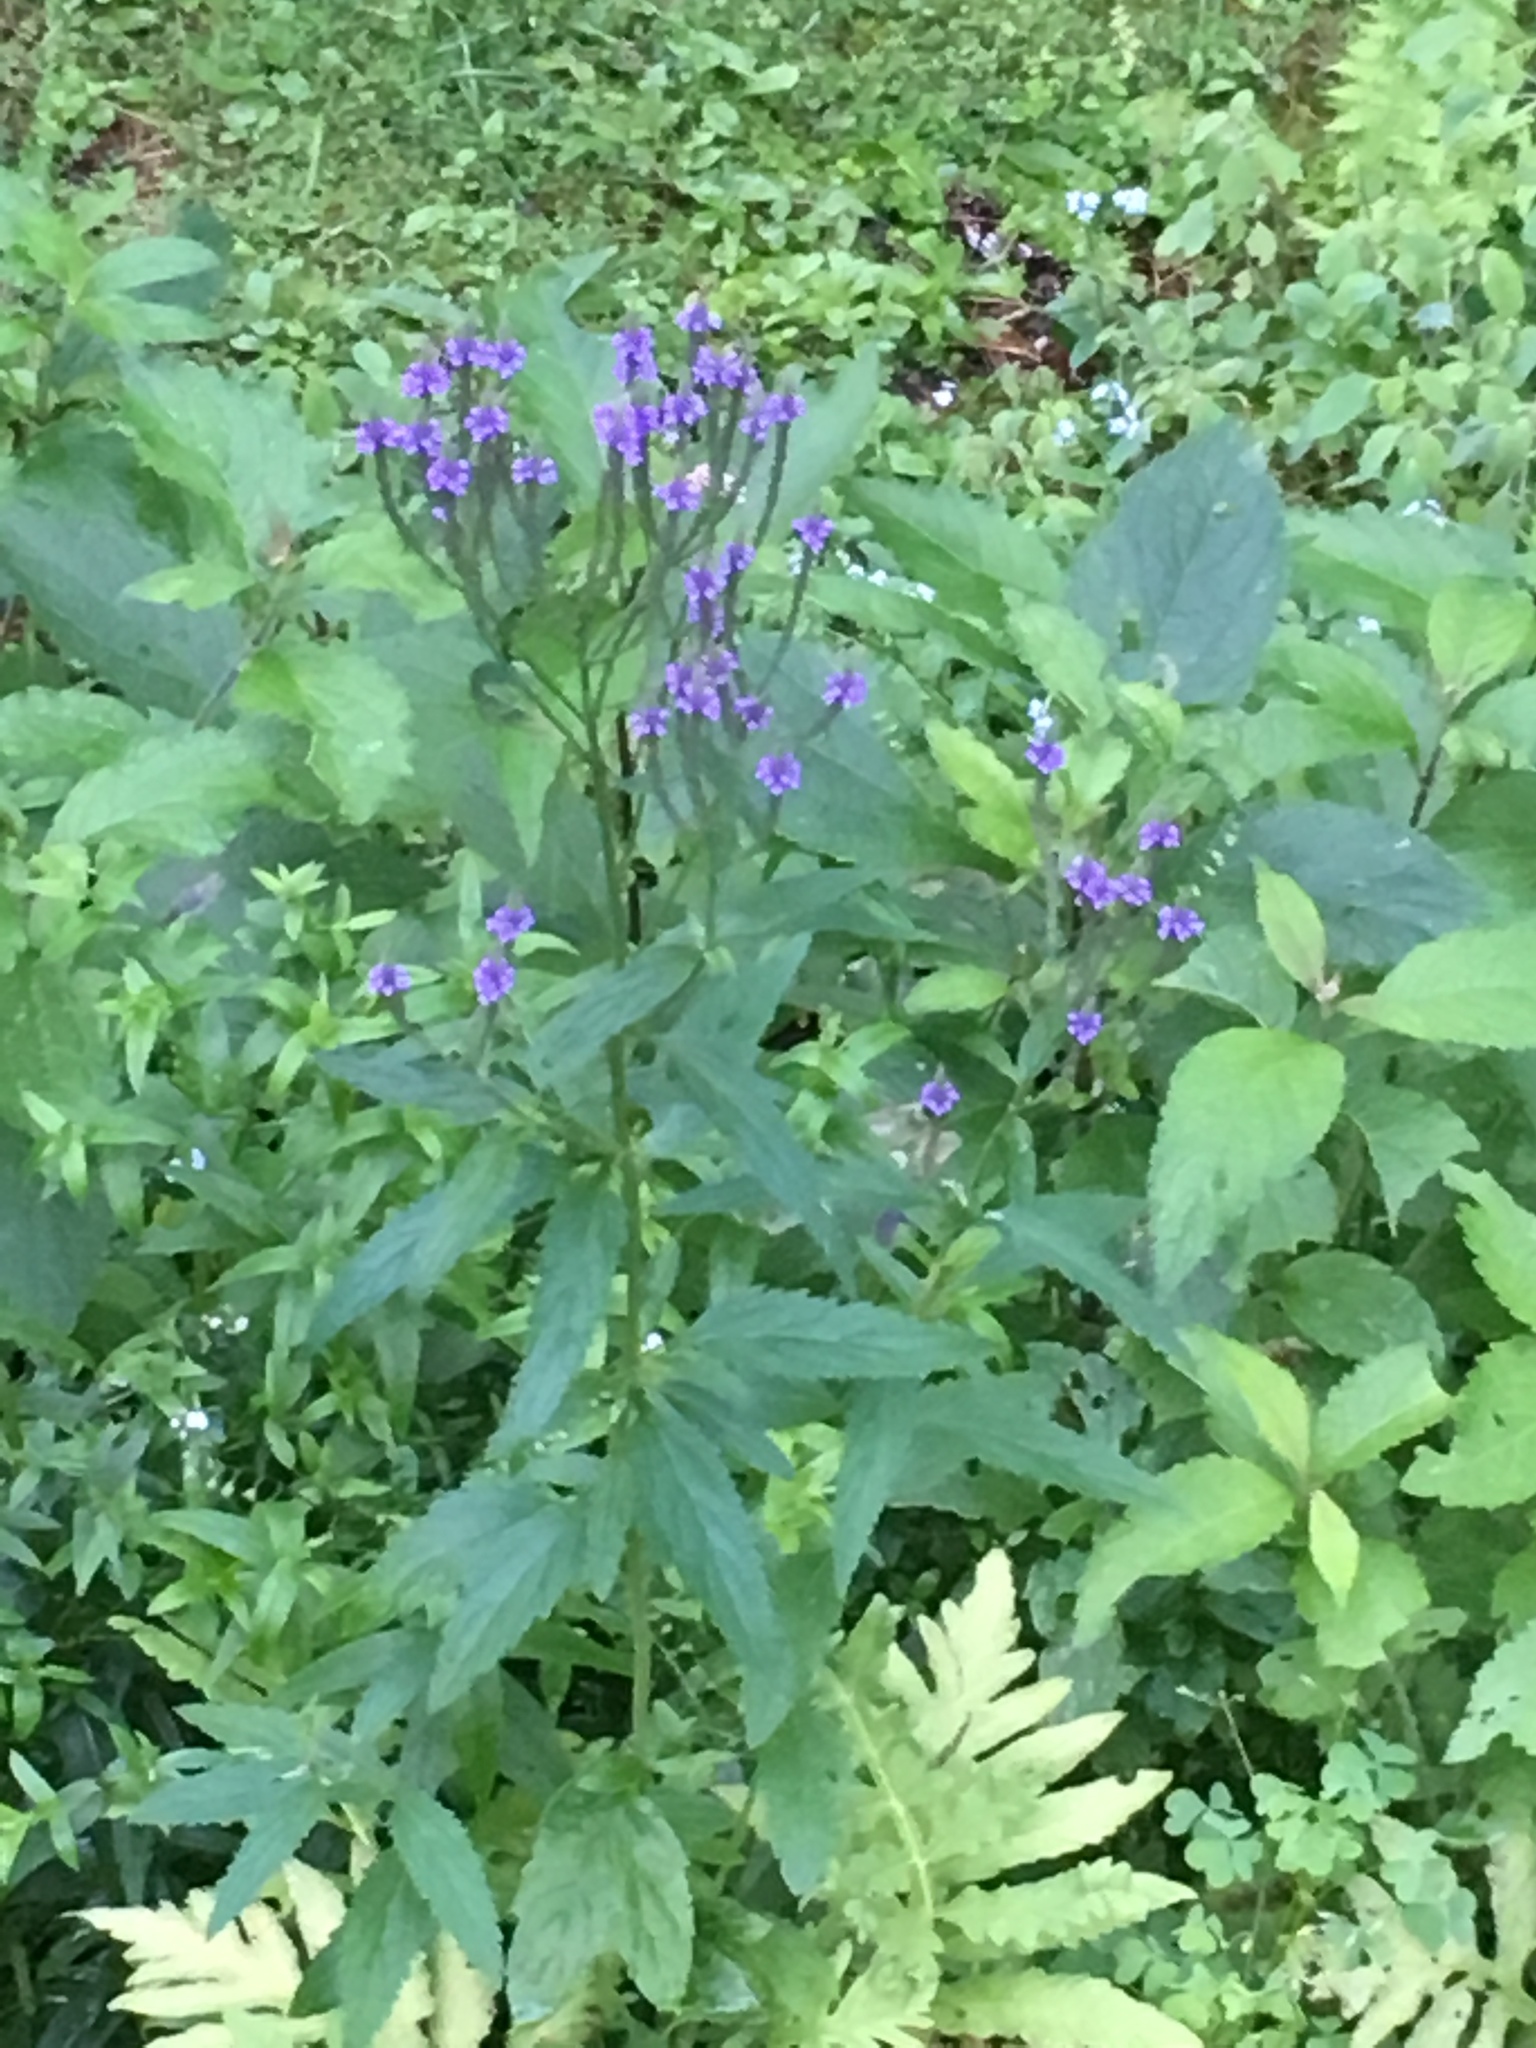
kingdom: Plantae
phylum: Tracheophyta
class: Magnoliopsida
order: Lamiales
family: Verbenaceae
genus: Verbena
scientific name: Verbena hastata
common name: American blue vervain
